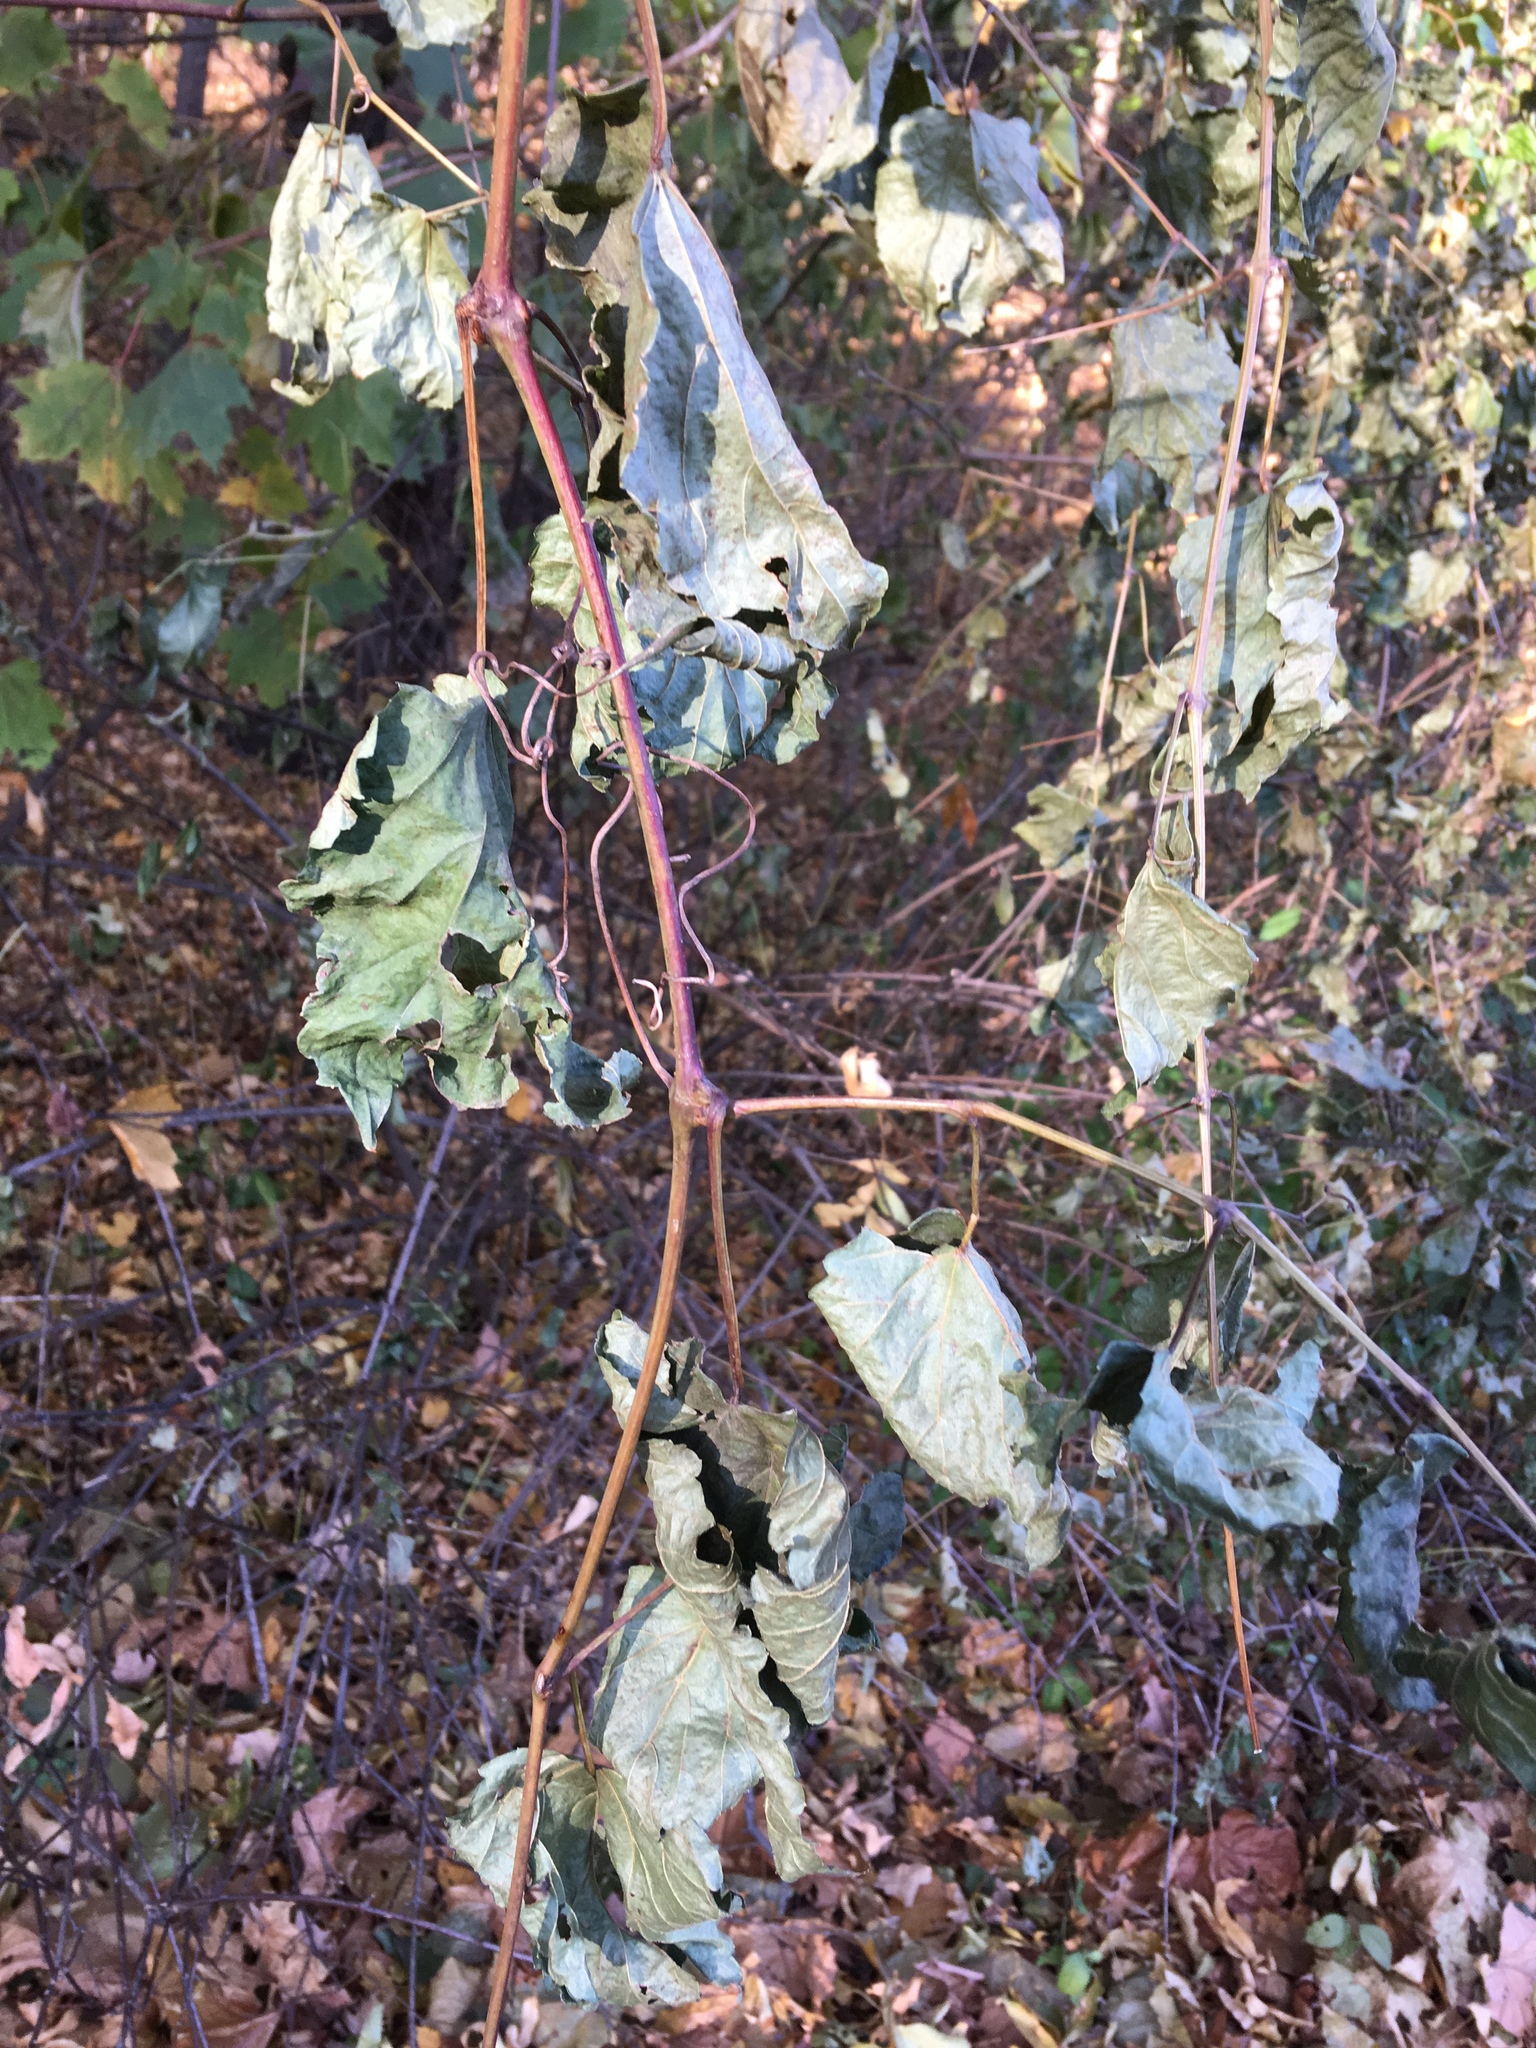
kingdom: Plantae
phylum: Tracheophyta
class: Magnoliopsida
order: Vitales
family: Vitaceae
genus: Ampelopsis
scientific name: Ampelopsis glandulosa
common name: Amur peppervine
